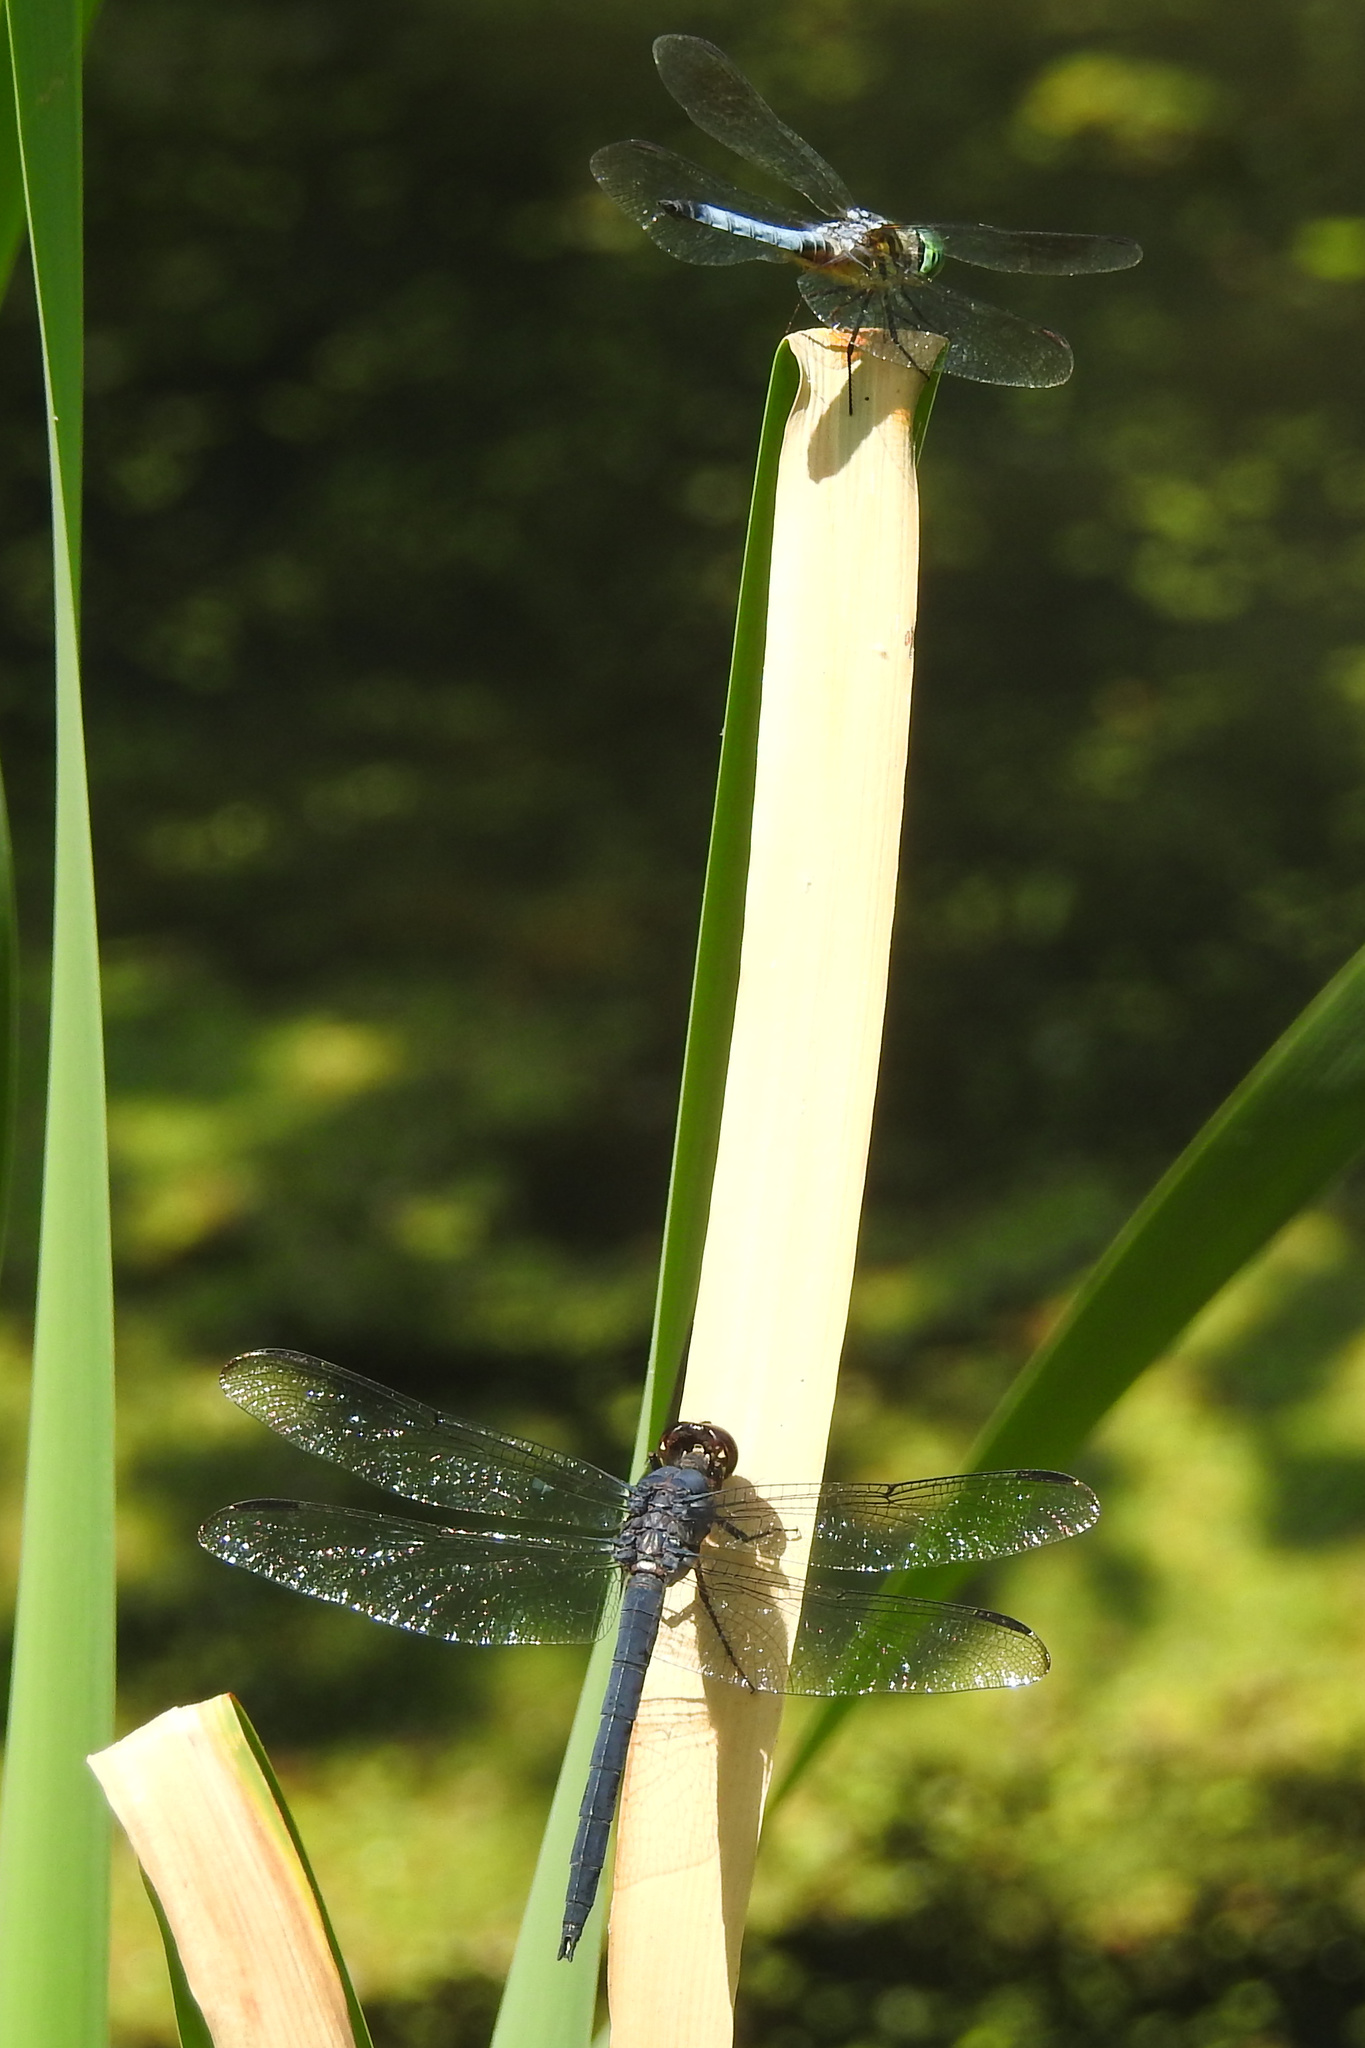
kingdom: Animalia
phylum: Arthropoda
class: Insecta
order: Odonata
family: Libellulidae
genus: Pachydiplax
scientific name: Pachydiplax longipennis
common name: Blue dasher
